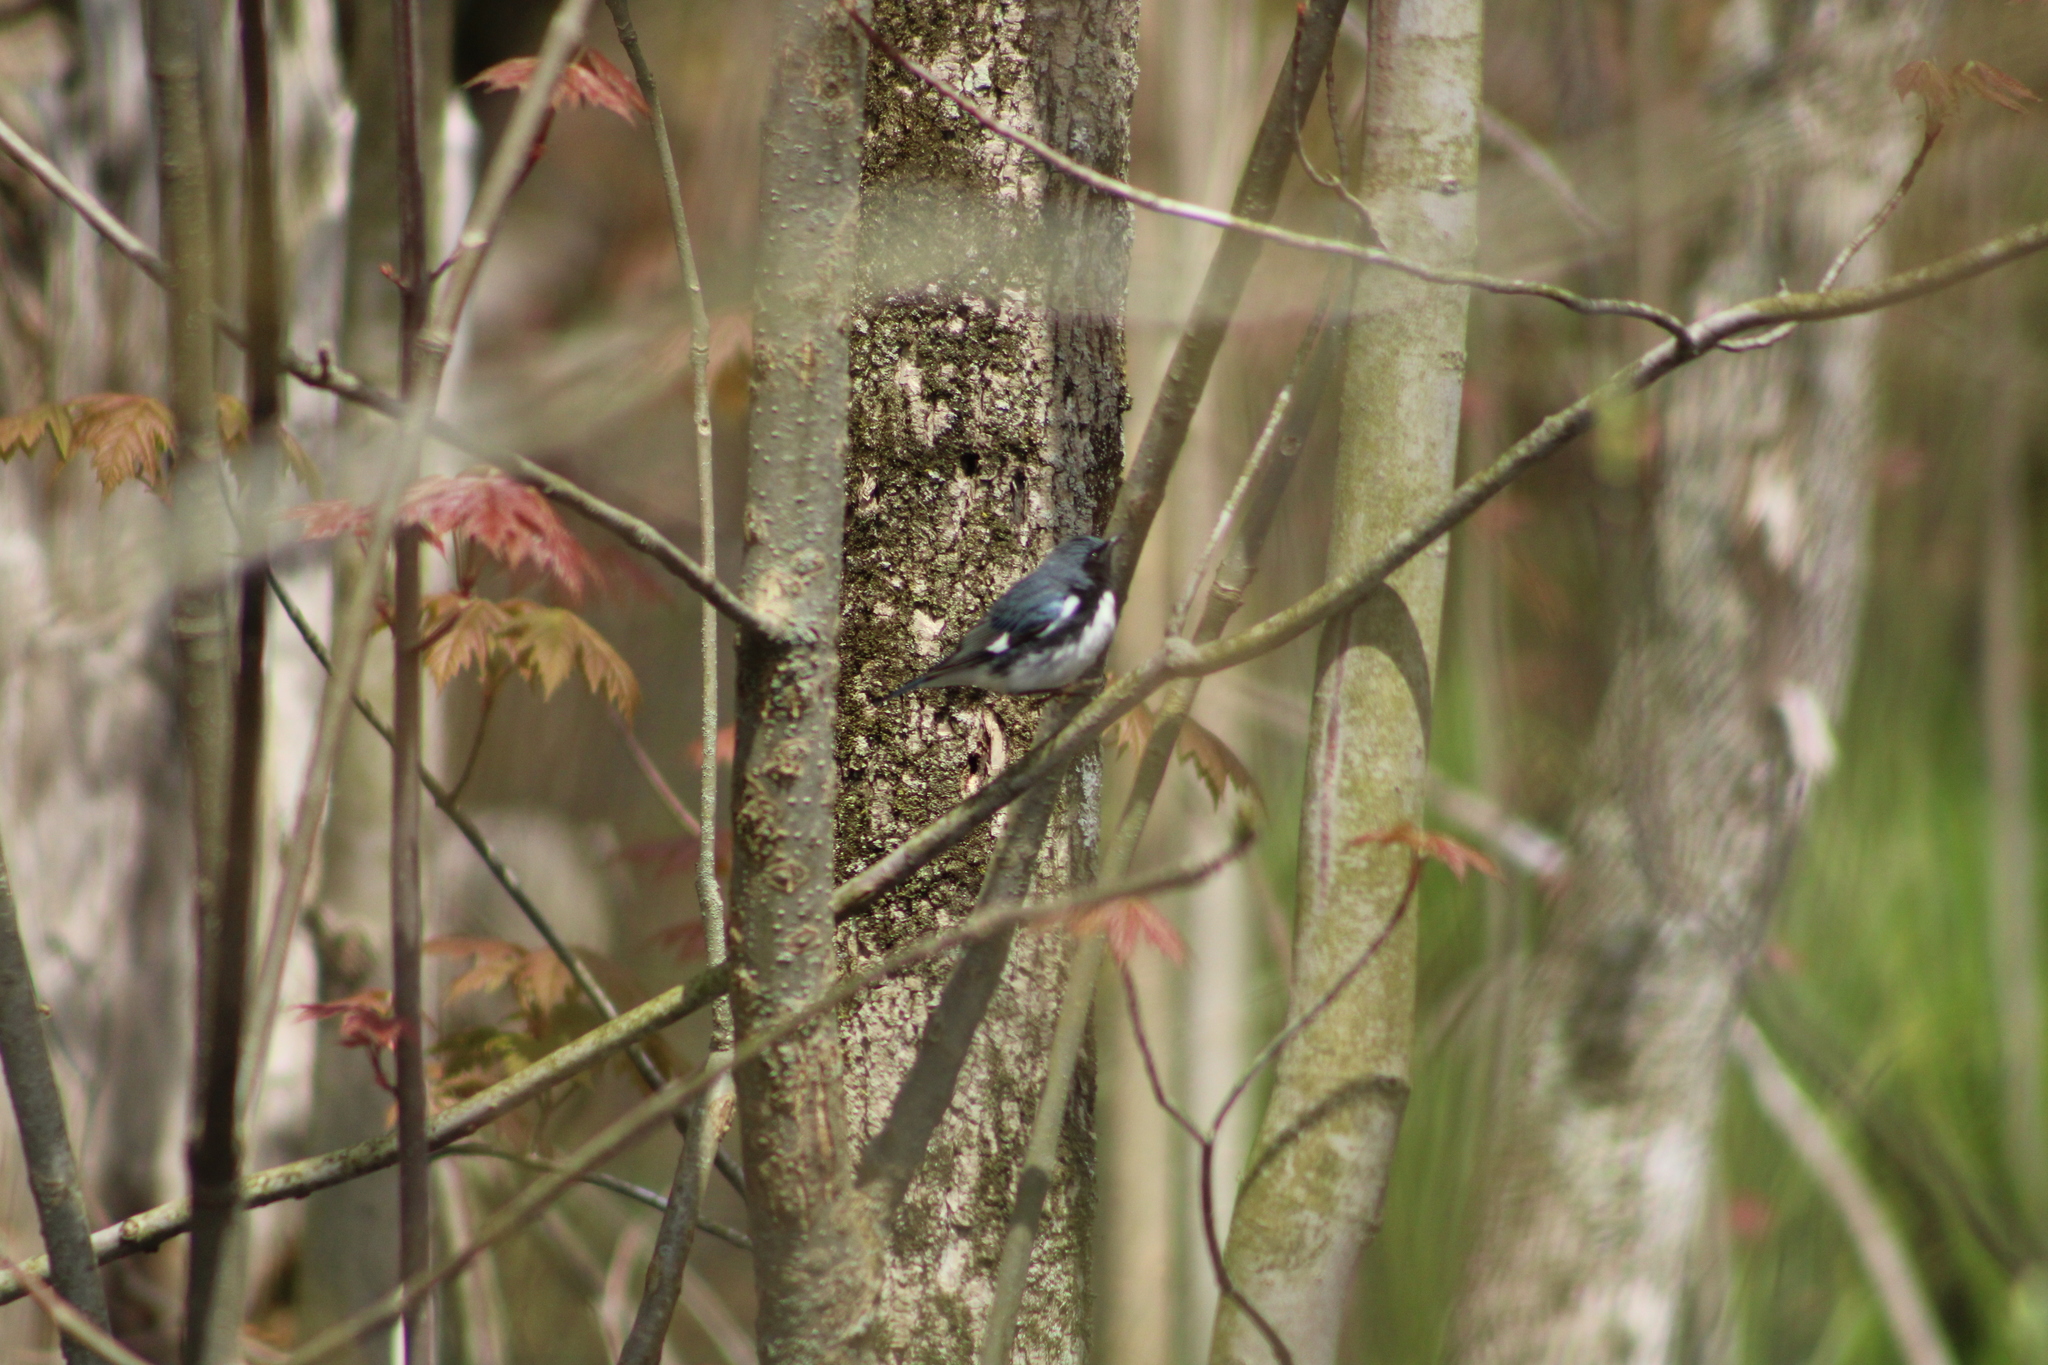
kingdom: Animalia
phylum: Chordata
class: Aves
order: Passeriformes
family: Parulidae
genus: Setophaga
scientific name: Setophaga caerulescens
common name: Black-throated blue warbler
